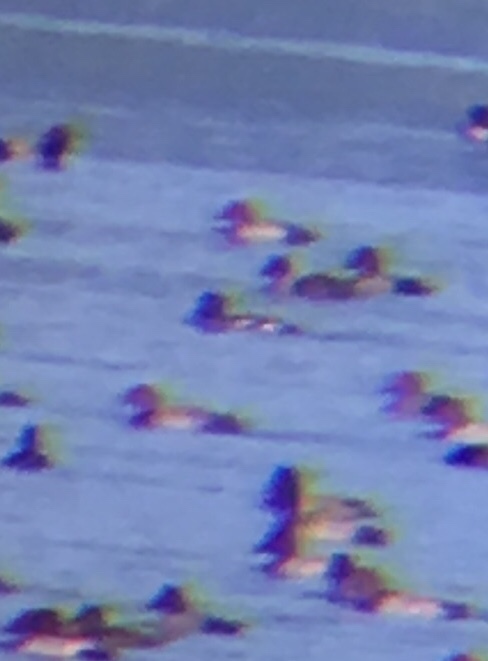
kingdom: Animalia
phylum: Chordata
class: Aves
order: Anseriformes
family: Anatidae
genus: Bucephala
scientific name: Bucephala clangula
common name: Common goldeneye
